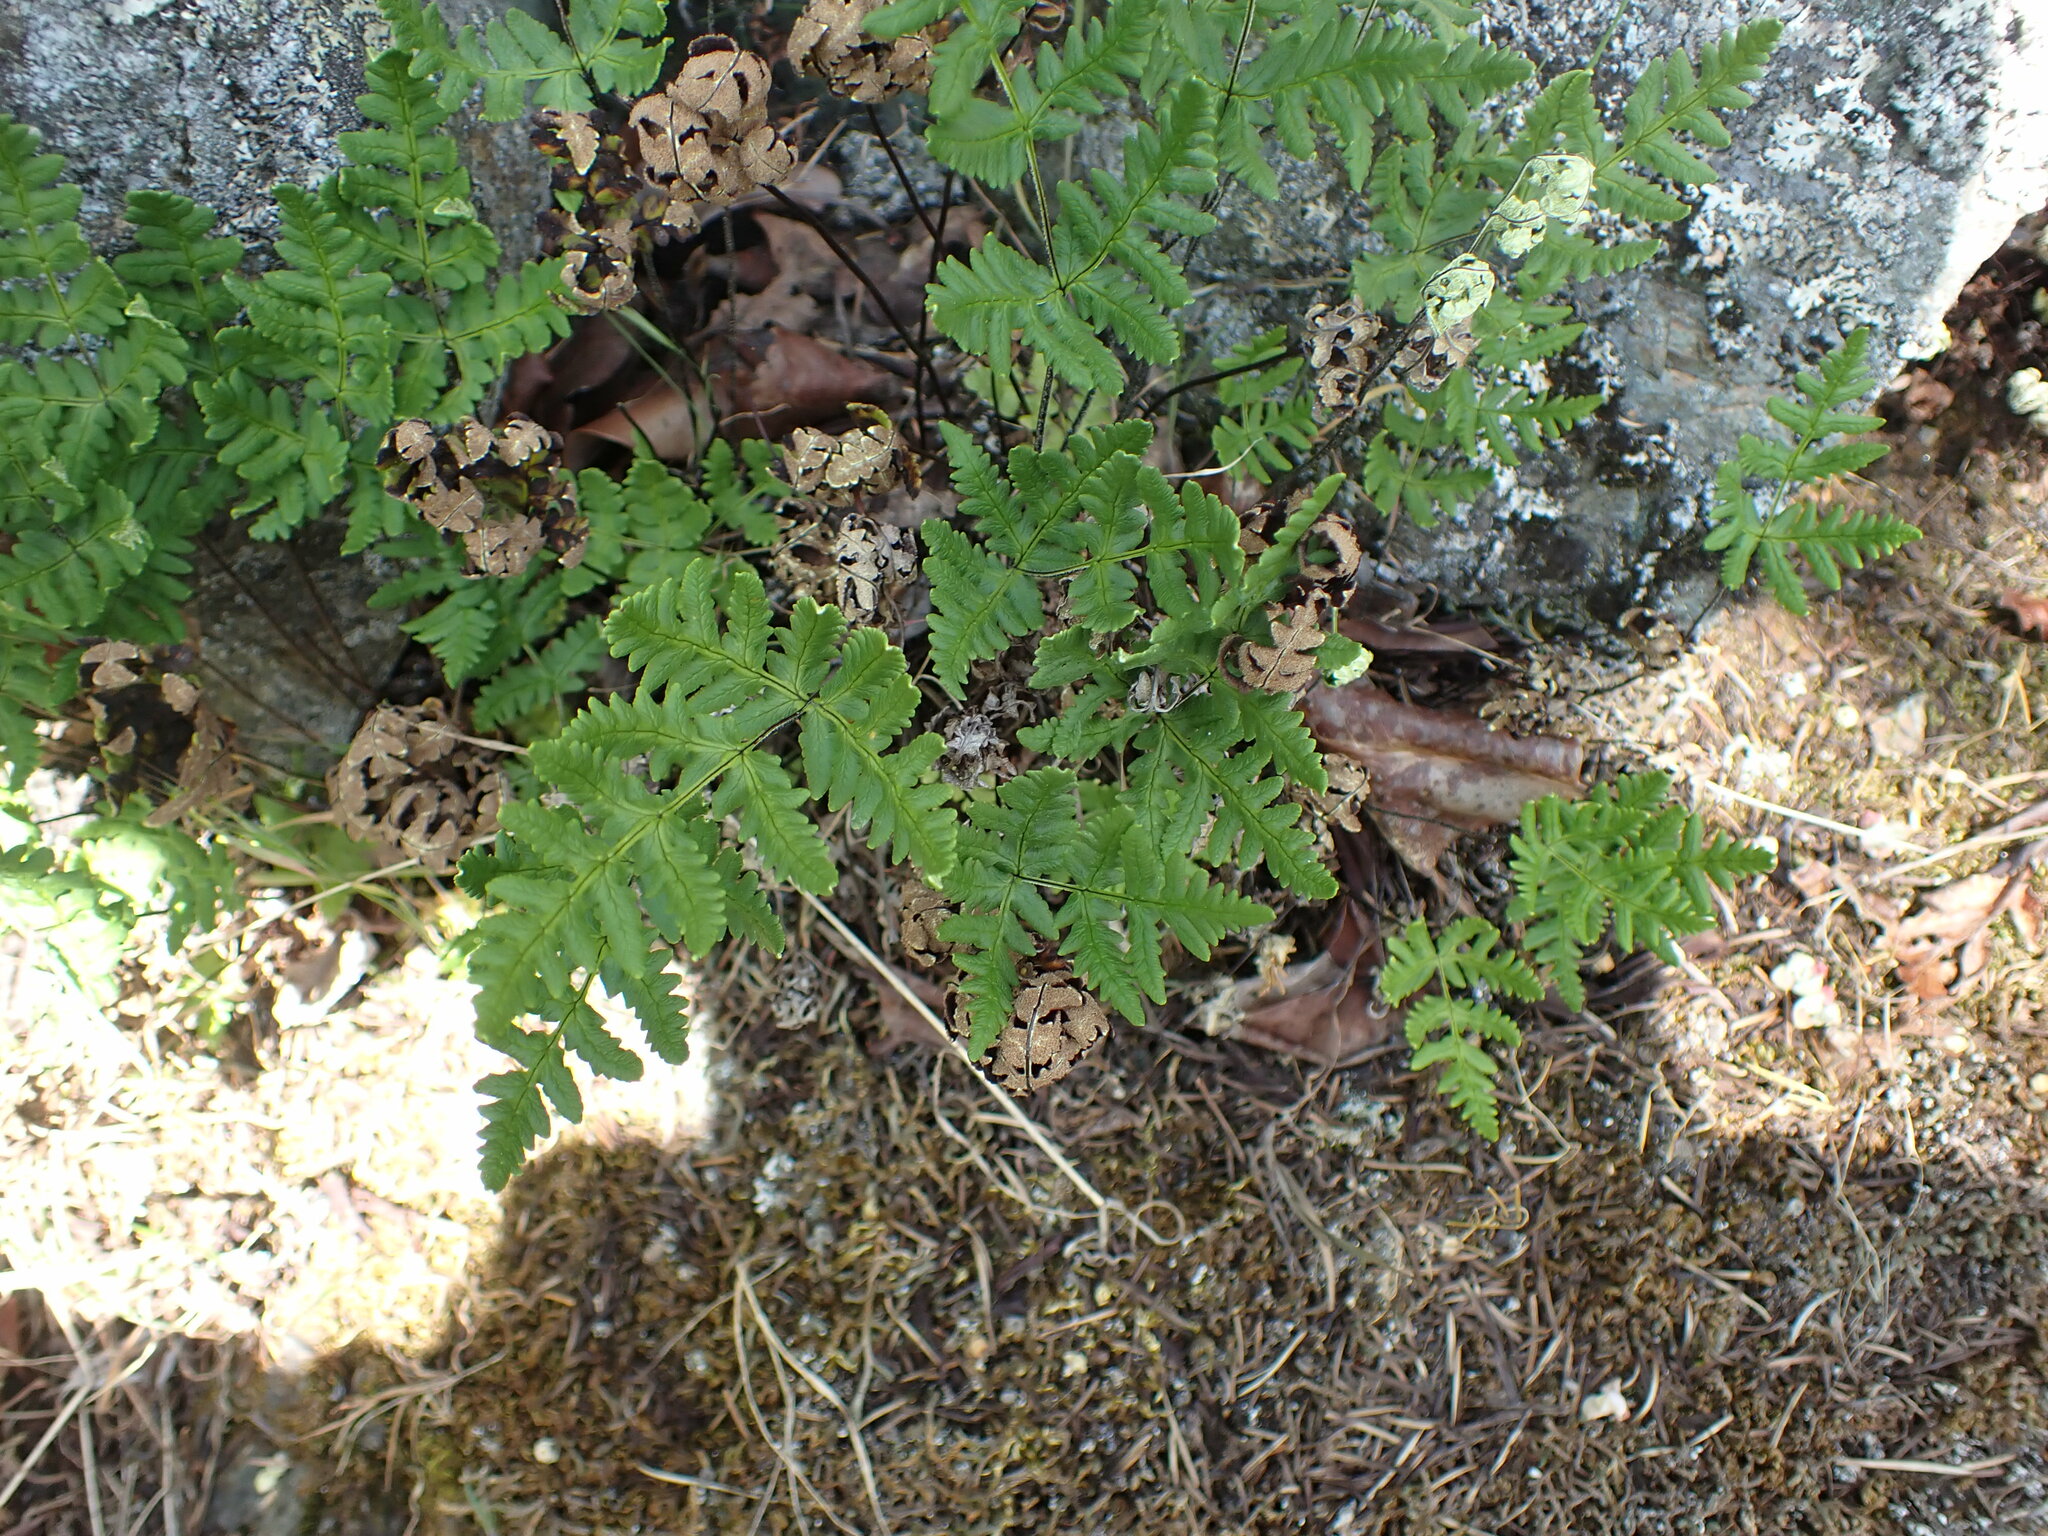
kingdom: Plantae
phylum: Tracheophyta
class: Polypodiopsida
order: Polypodiales
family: Pteridaceae
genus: Pentagramma
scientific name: Pentagramma triangularis
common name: Gold fern
